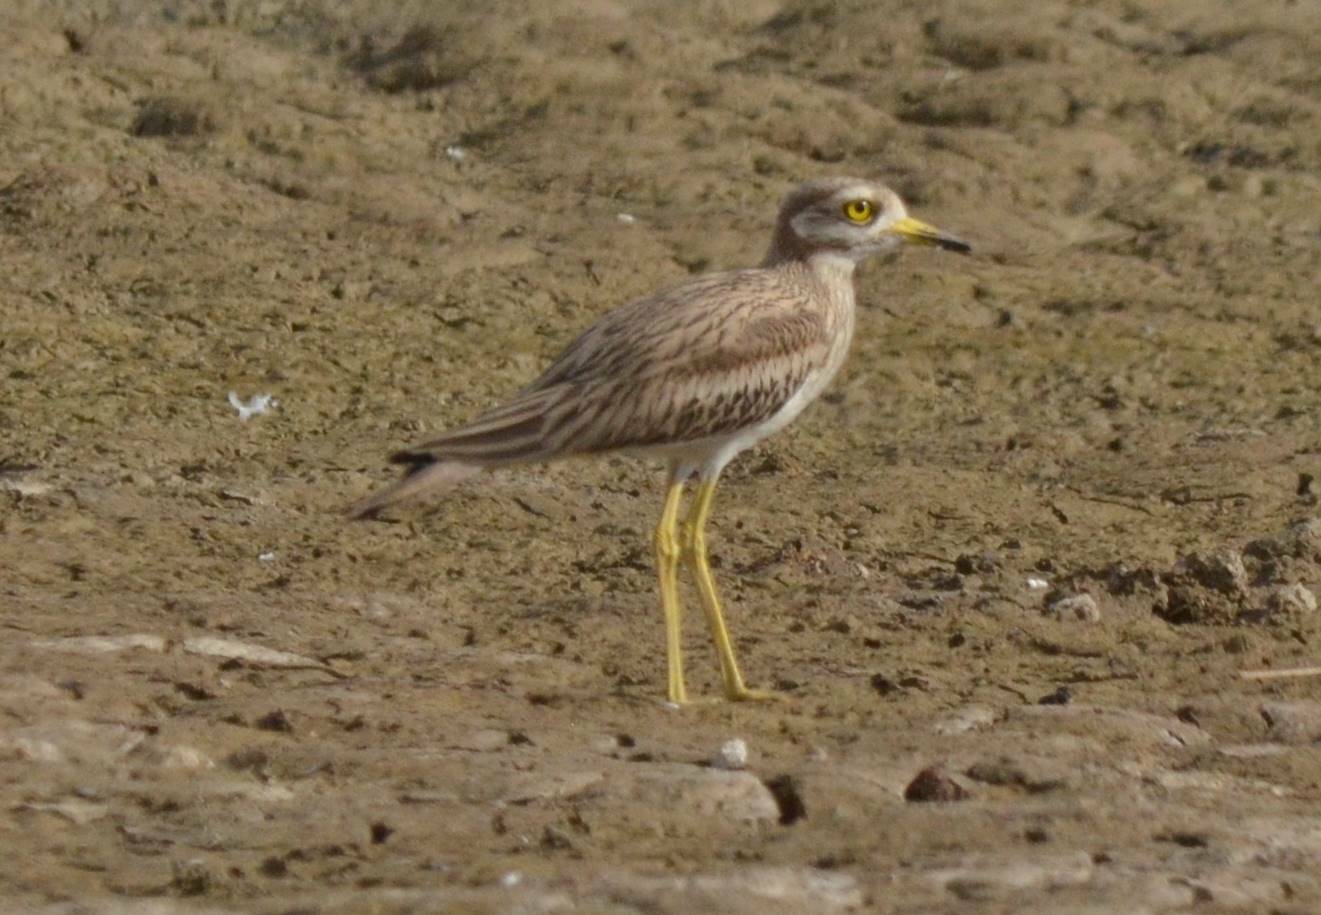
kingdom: Animalia
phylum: Chordata
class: Aves
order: Charadriiformes
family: Burhinidae
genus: Burhinus
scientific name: Burhinus oedicnemus
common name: Eurasian stone-curlew
